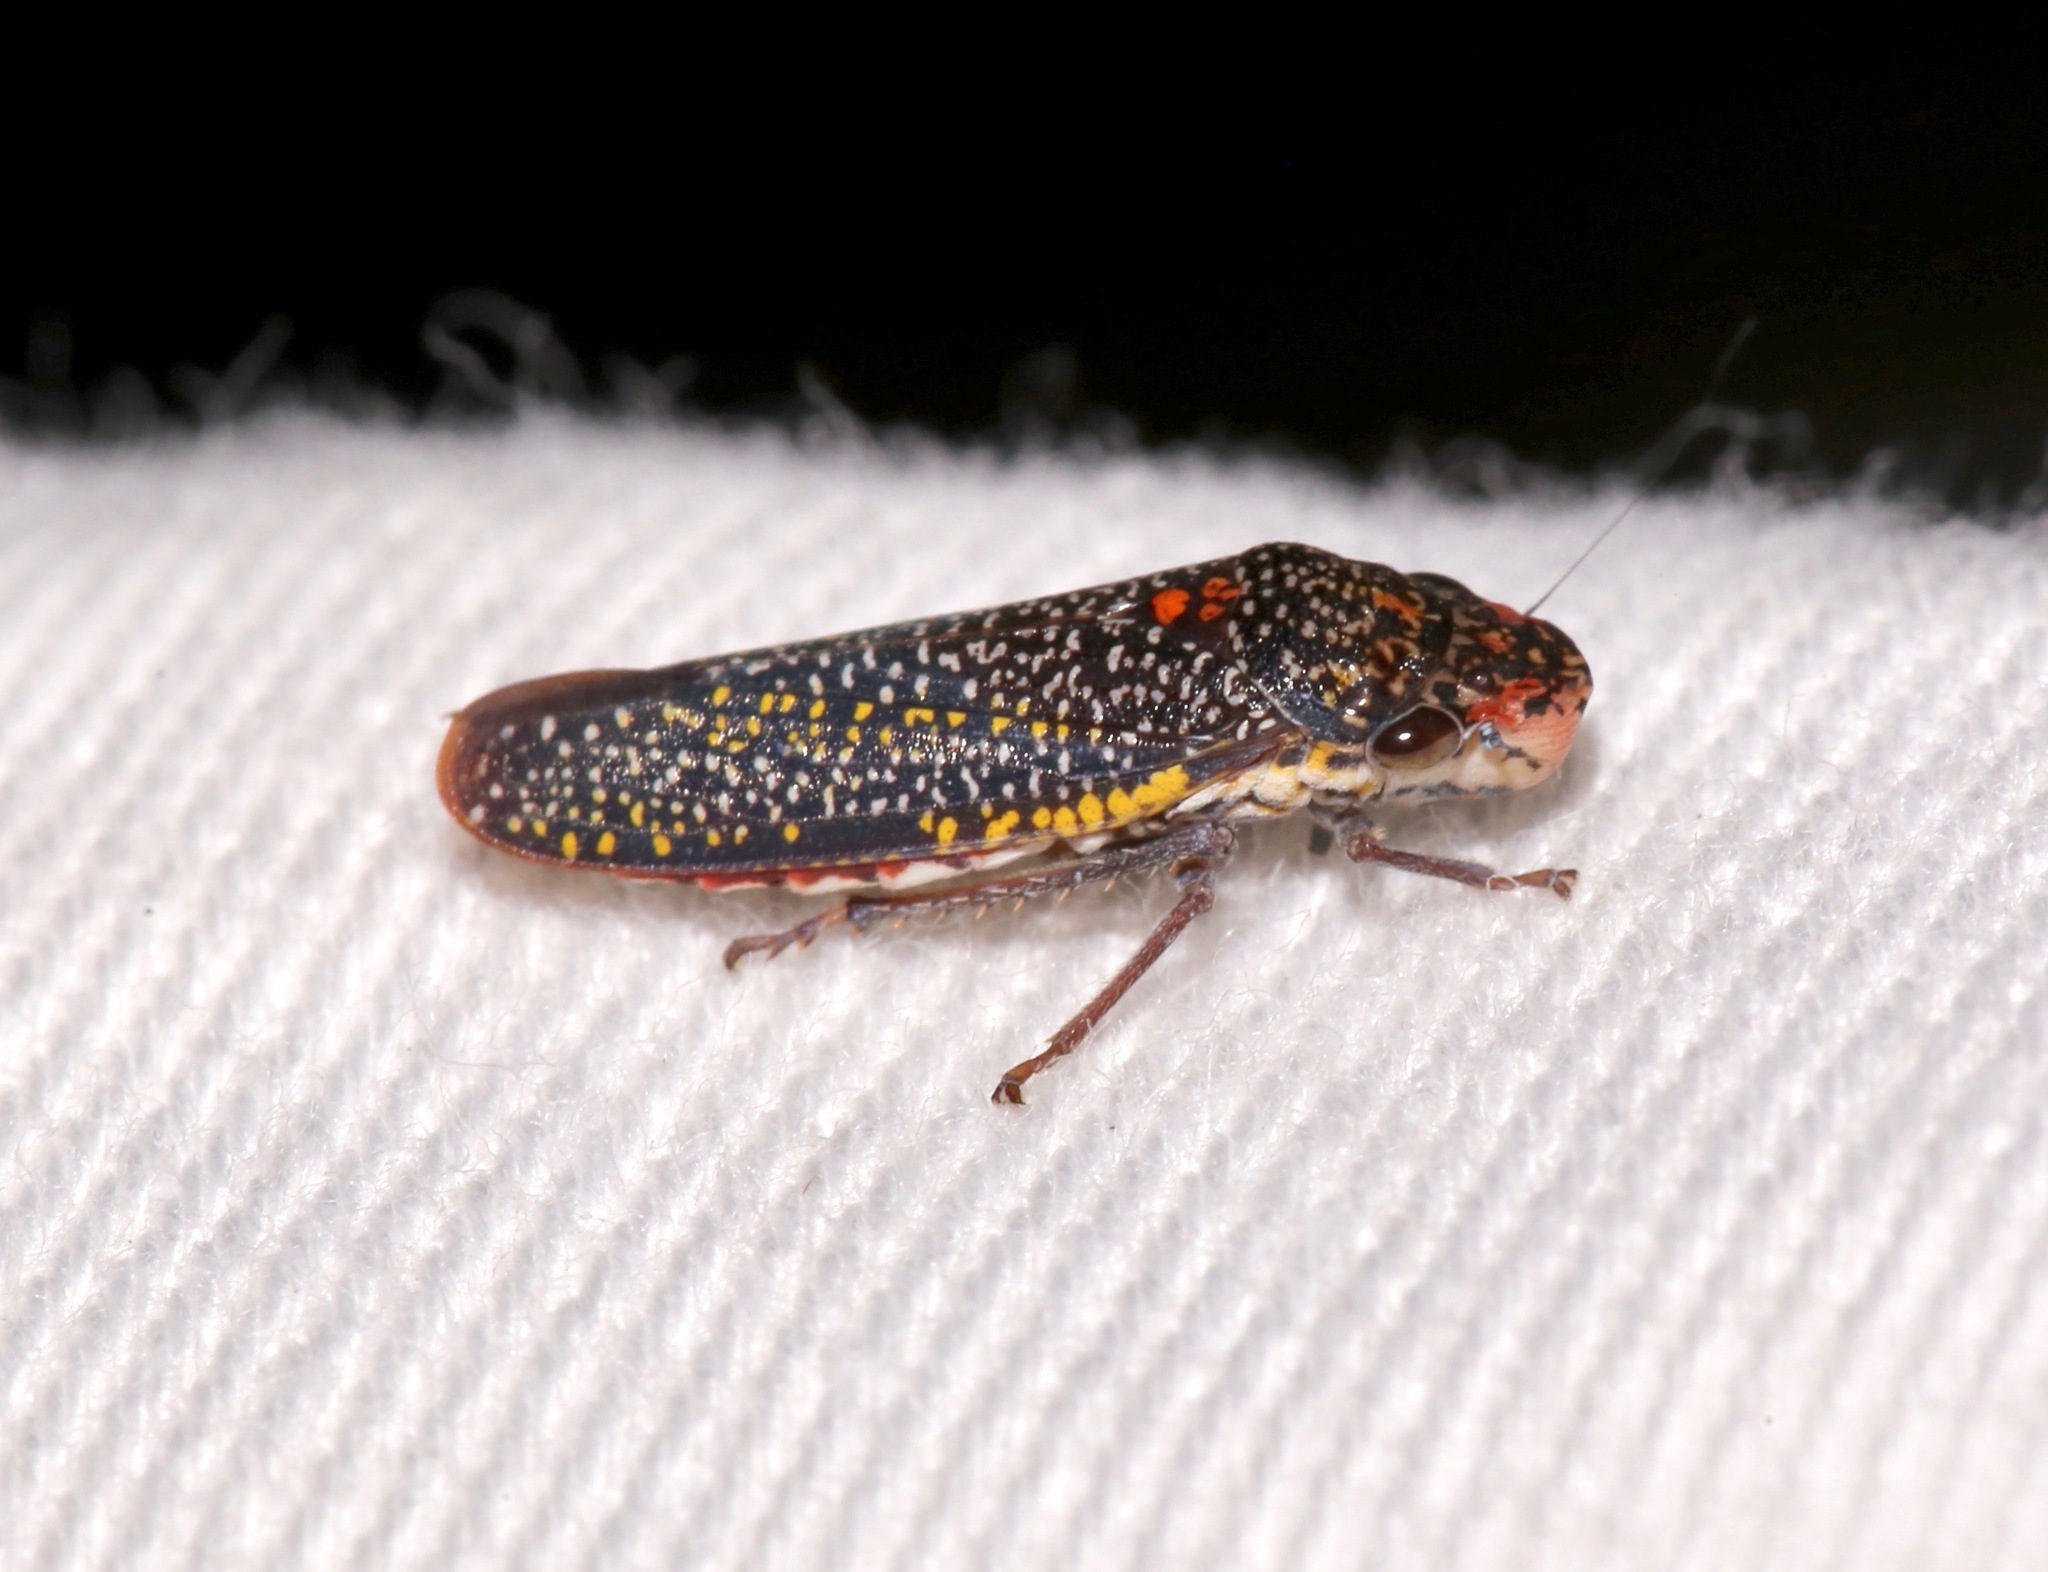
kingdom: Animalia
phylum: Arthropoda
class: Insecta
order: Hemiptera
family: Cicadellidae
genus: Paraulacizes
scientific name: Paraulacizes irrorata
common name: Speckled sharpshooter
